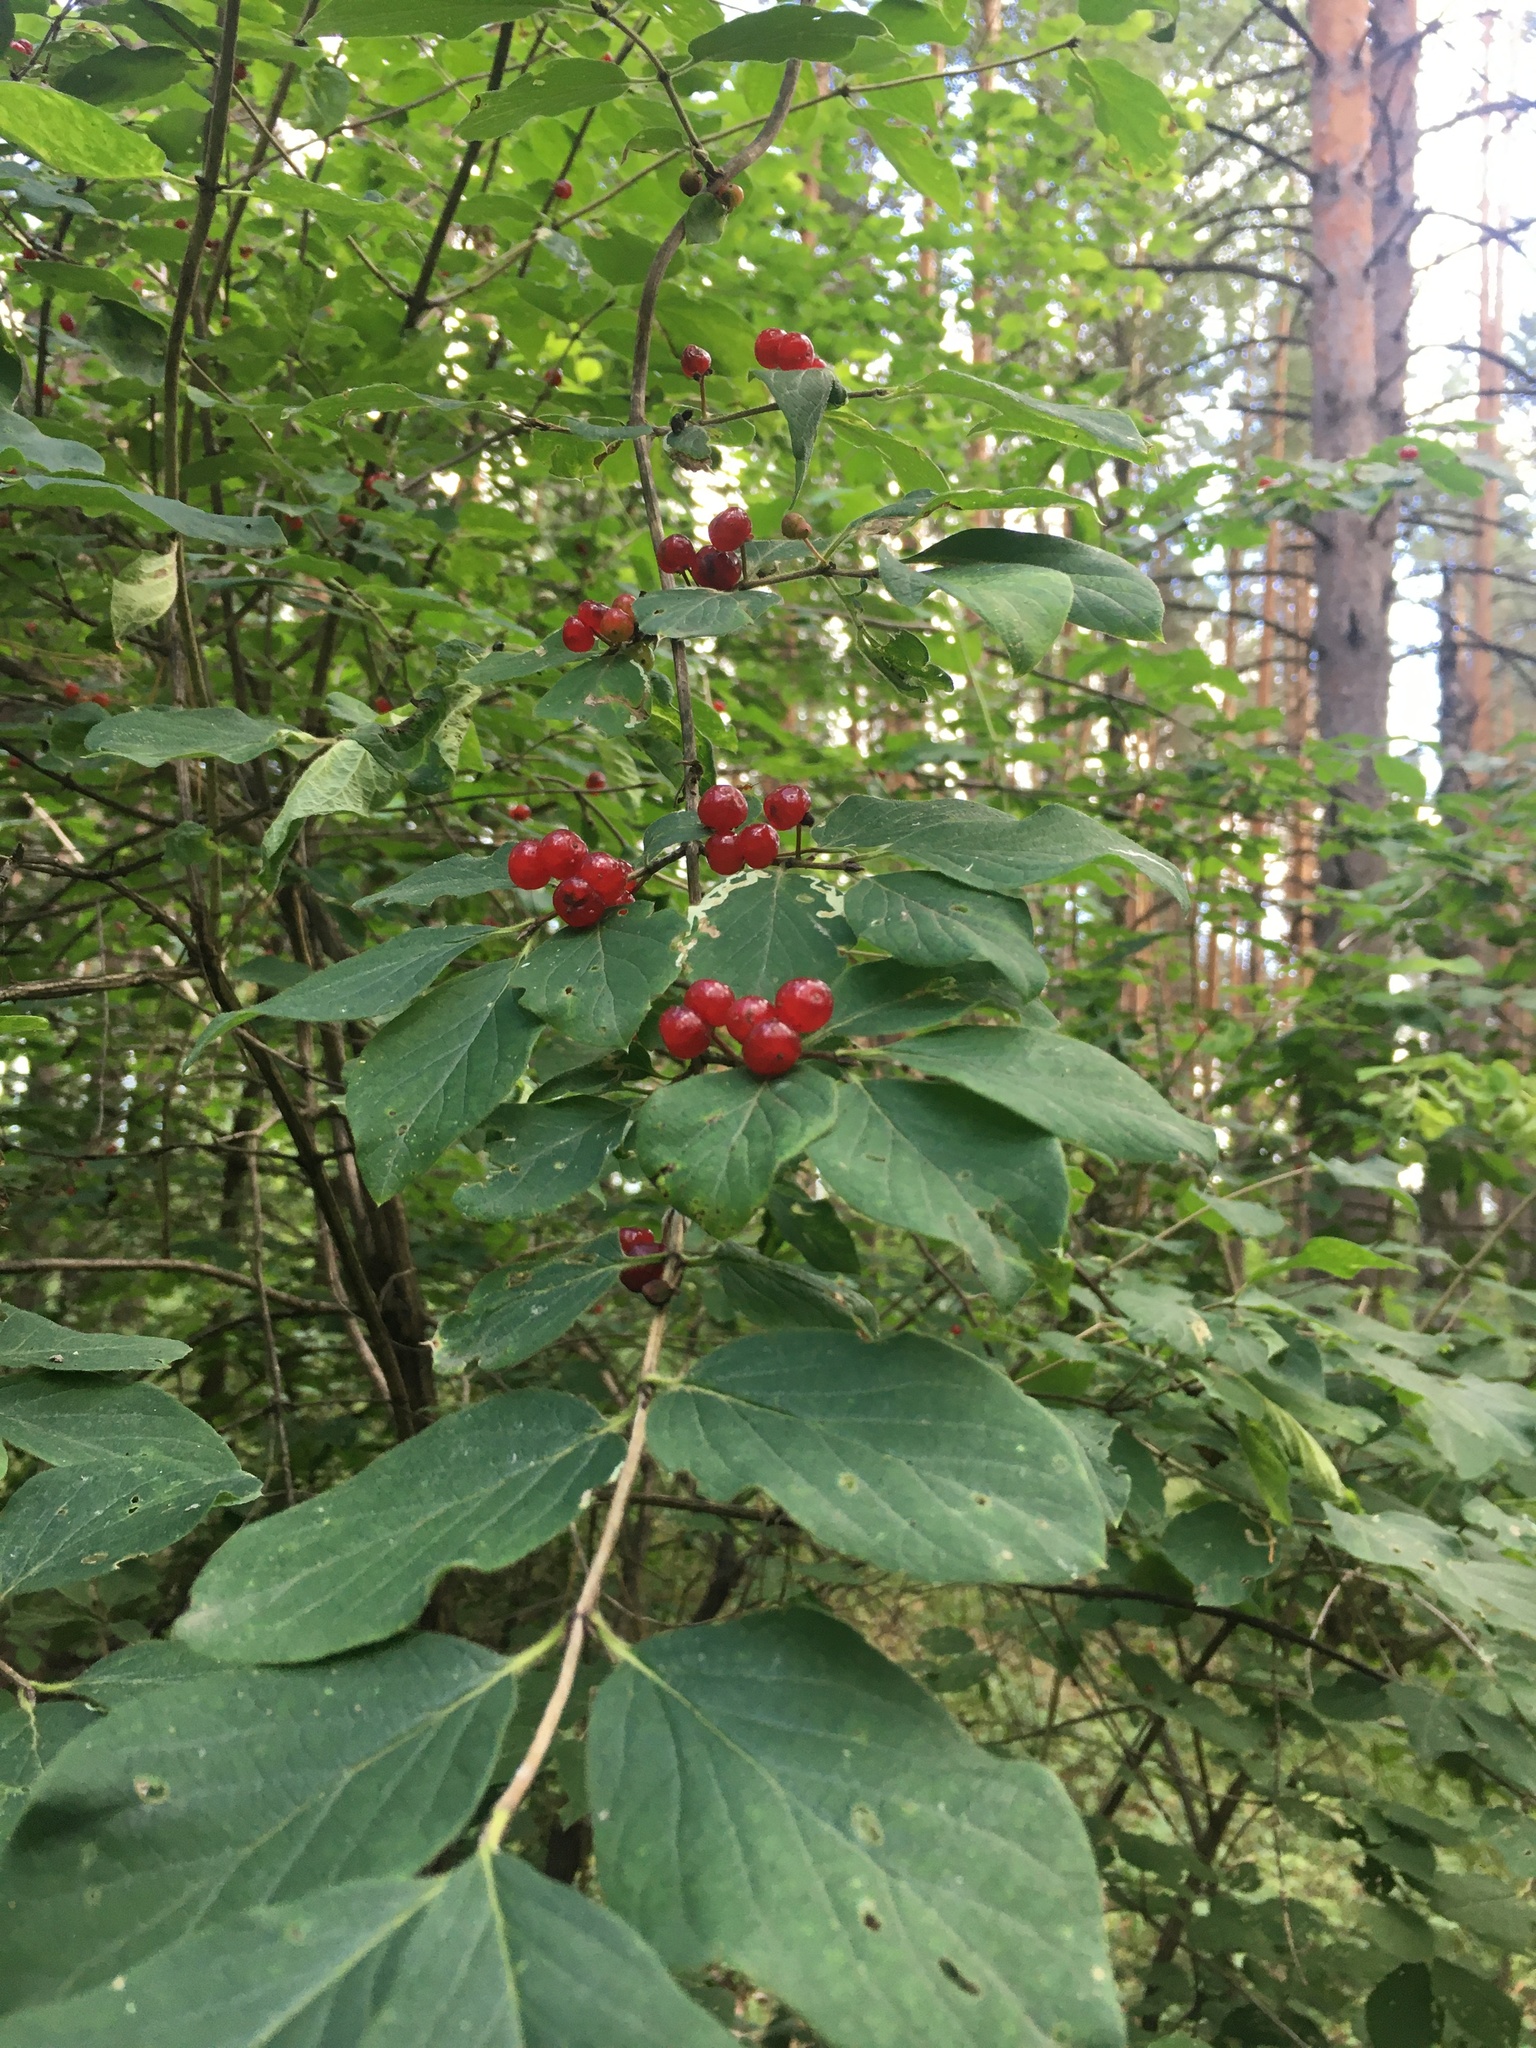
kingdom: Plantae
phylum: Tracheophyta
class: Magnoliopsida
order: Dipsacales
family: Caprifoliaceae
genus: Lonicera
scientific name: Lonicera xylosteum
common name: Fly honeysuckle
